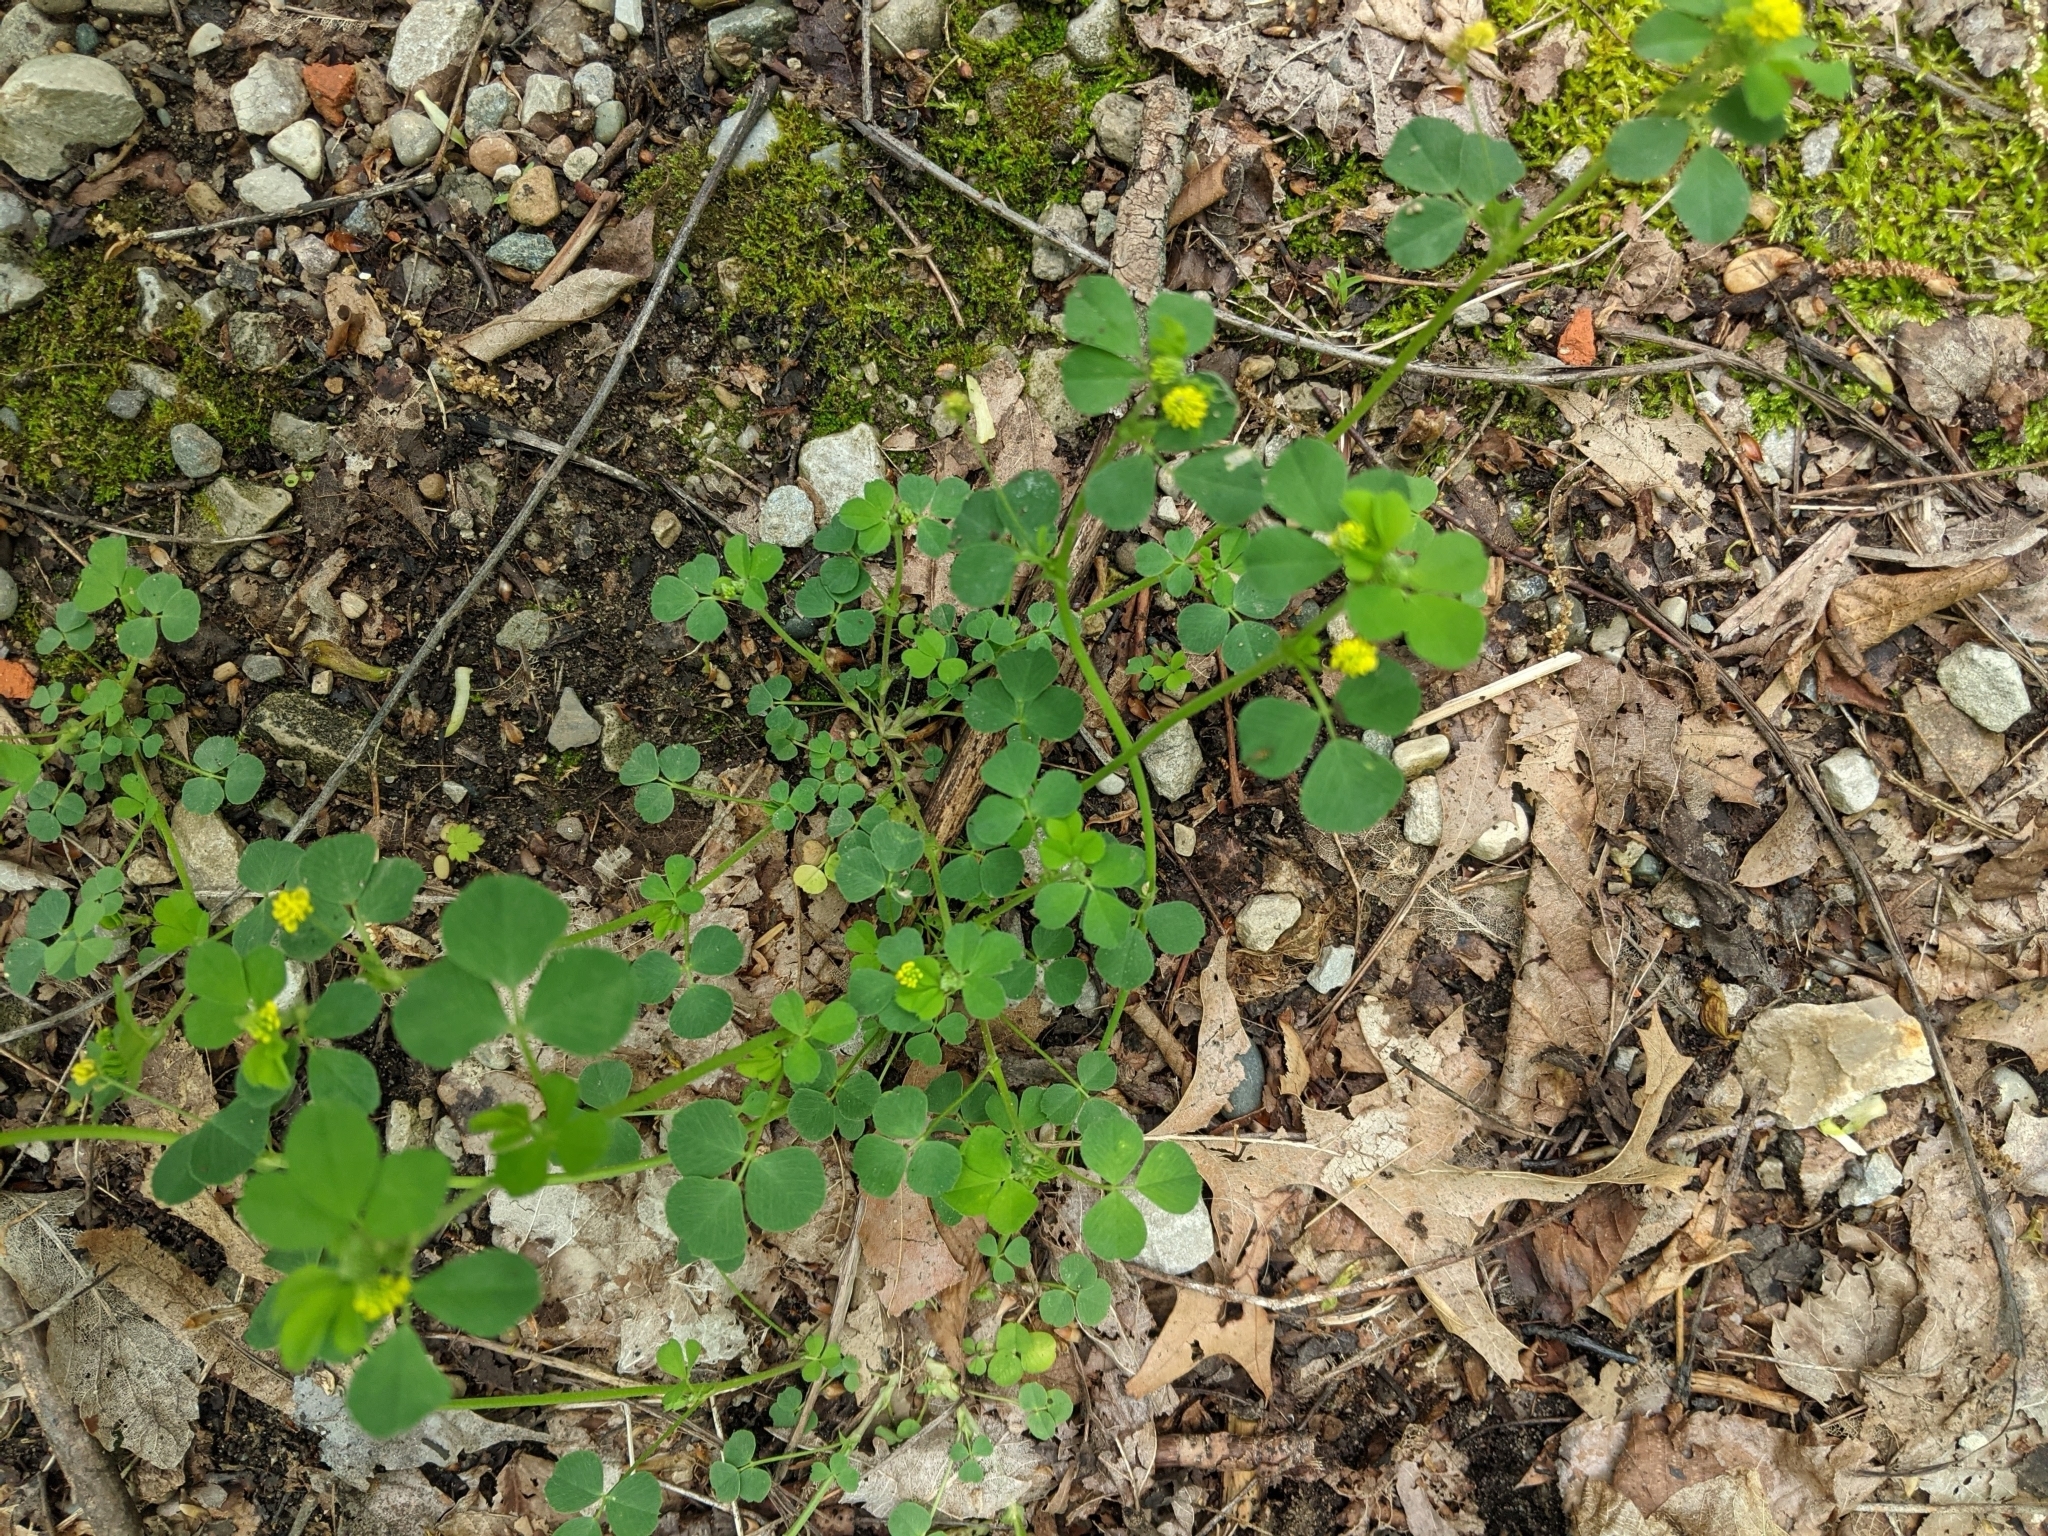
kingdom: Plantae
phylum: Tracheophyta
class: Magnoliopsida
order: Fabales
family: Fabaceae
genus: Medicago
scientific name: Medicago lupulina
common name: Black medick
